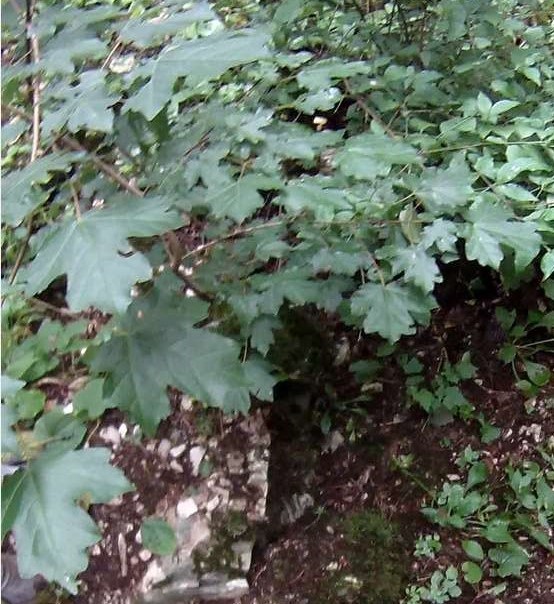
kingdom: Plantae
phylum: Tracheophyta
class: Magnoliopsida
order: Sapindales
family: Sapindaceae
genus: Acer
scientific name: Acer campestre
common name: Field maple
